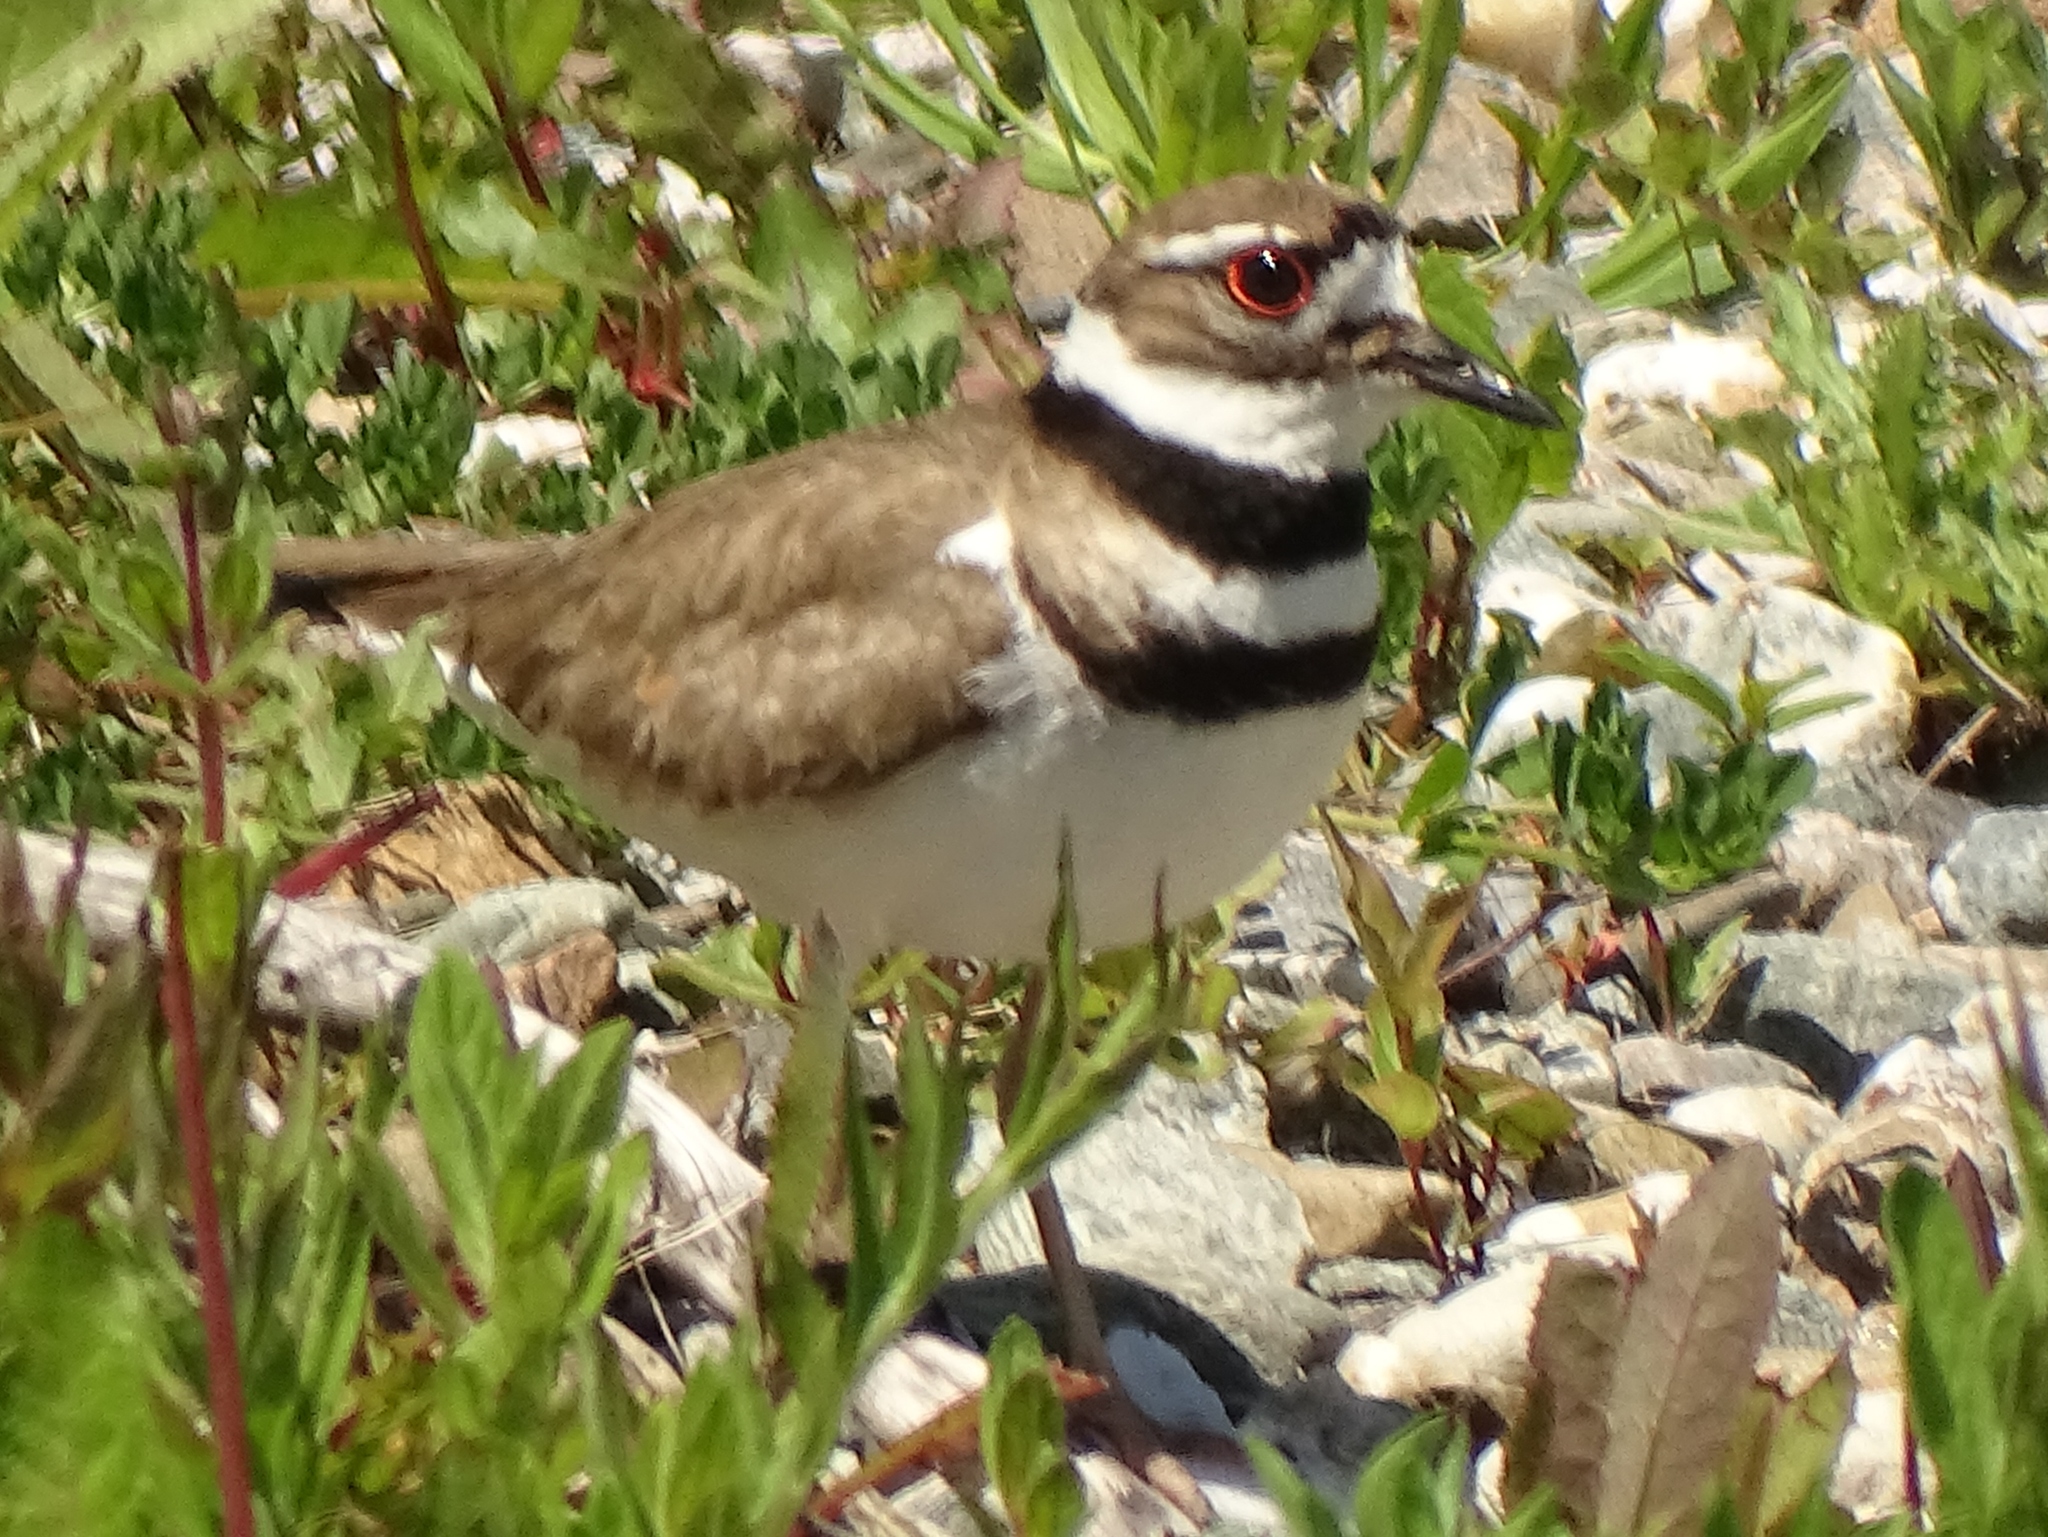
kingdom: Animalia
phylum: Chordata
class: Aves
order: Charadriiformes
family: Charadriidae
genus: Charadrius
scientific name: Charadrius vociferus
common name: Killdeer
